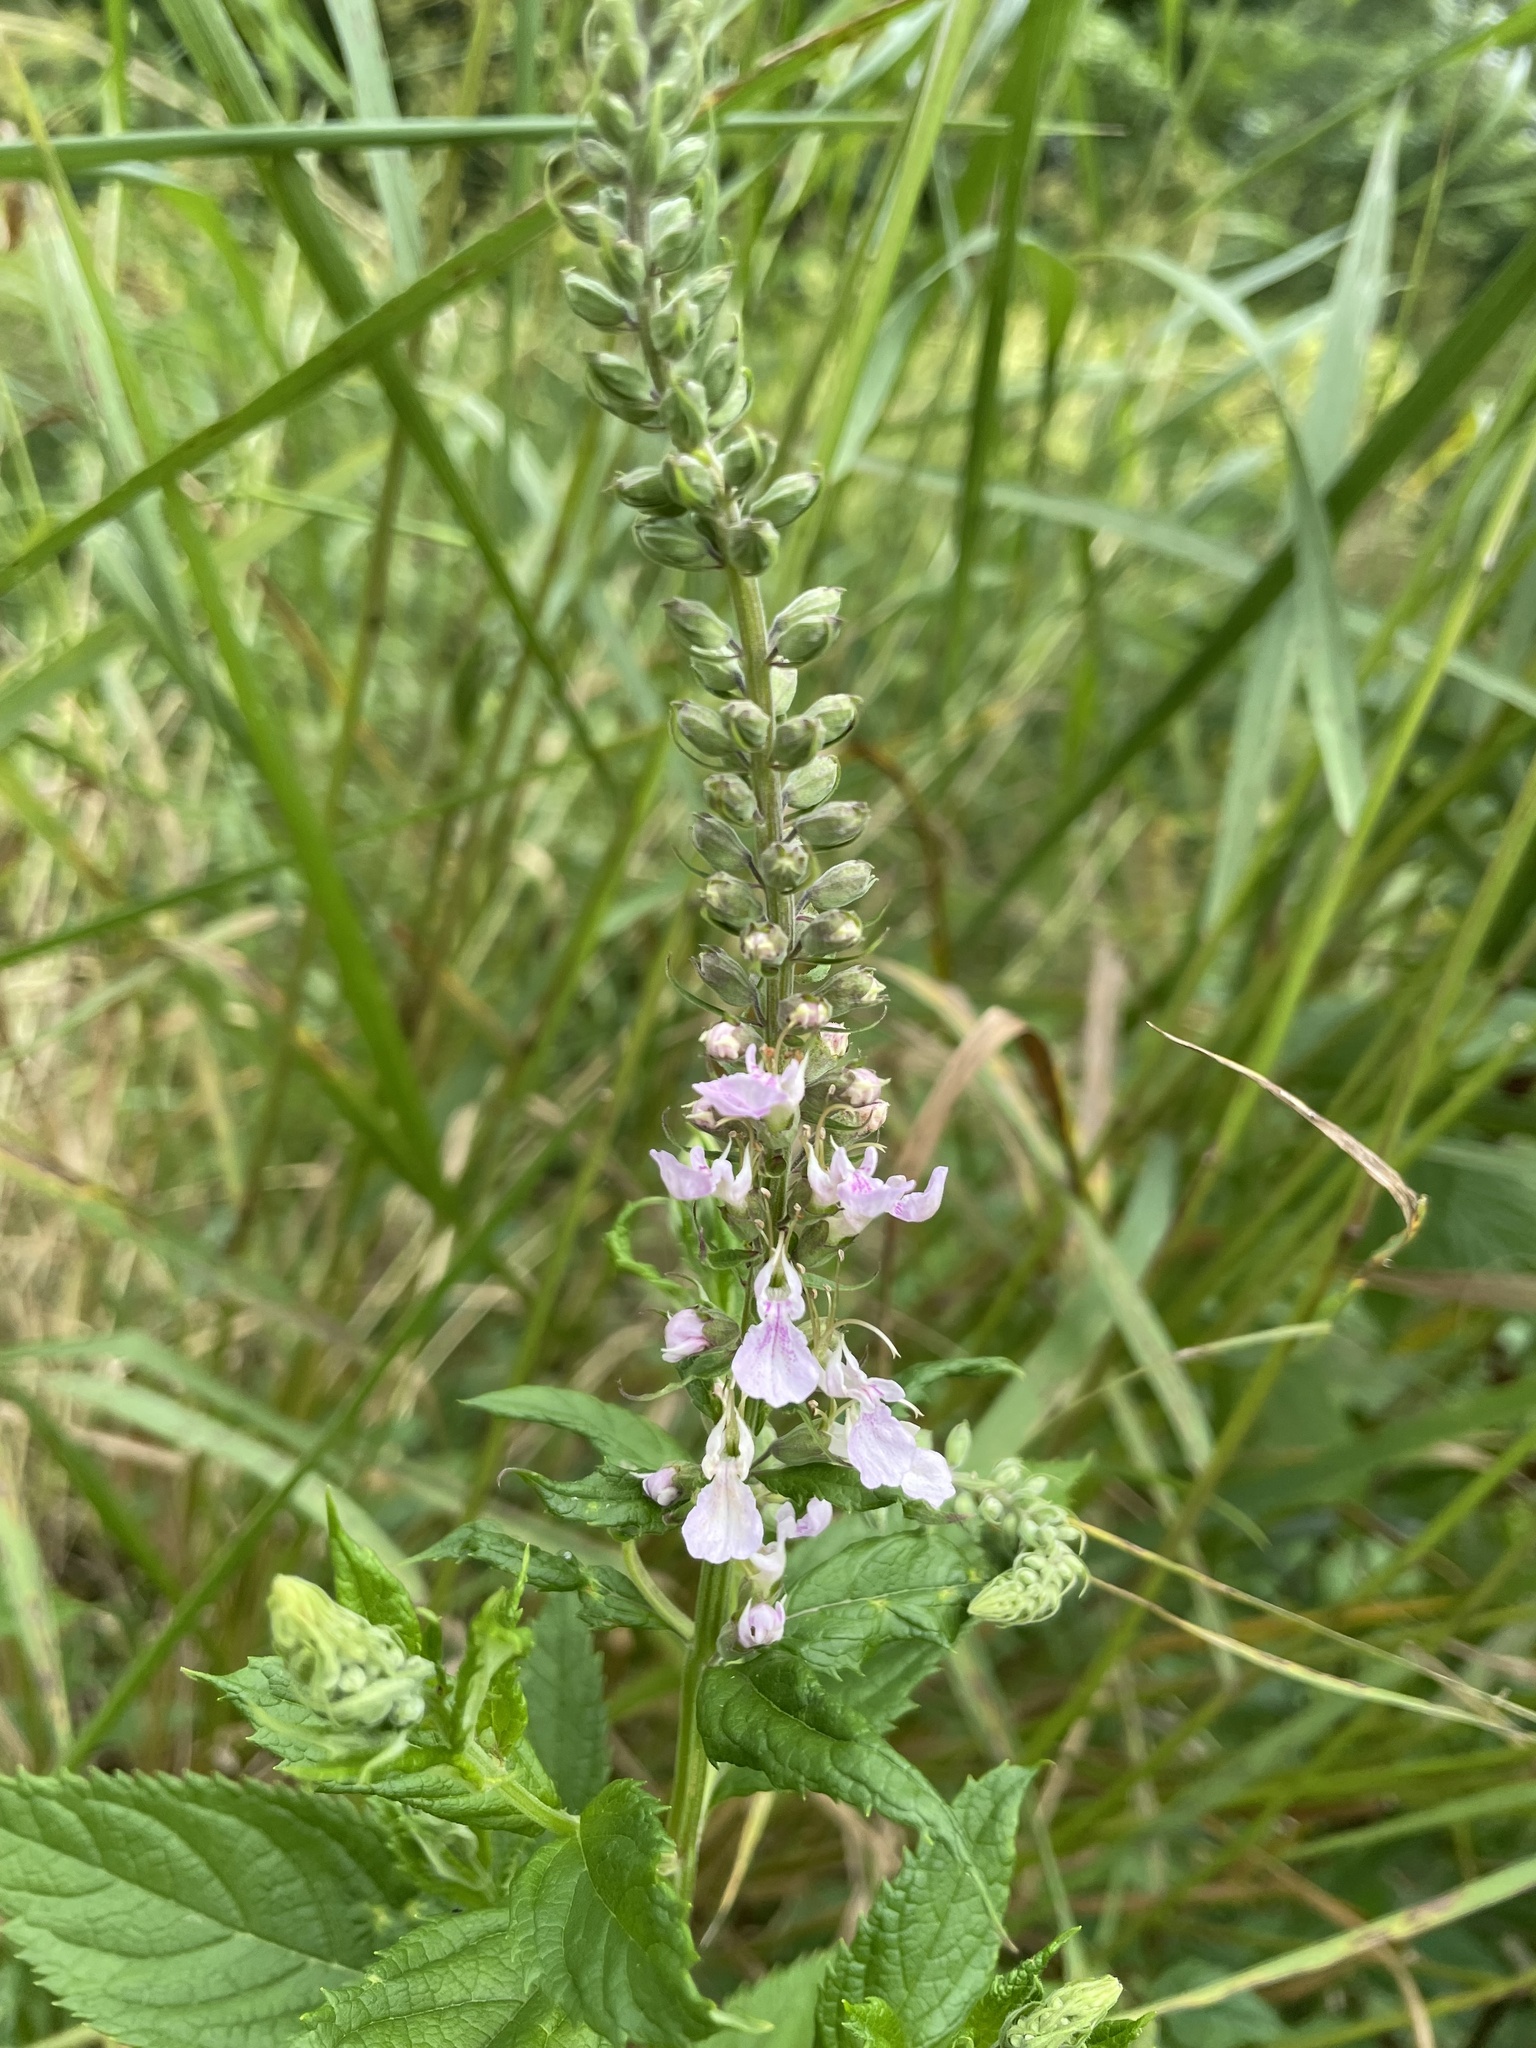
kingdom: Plantae
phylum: Tracheophyta
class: Magnoliopsida
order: Lamiales
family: Lamiaceae
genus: Teucrium
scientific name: Teucrium canadense
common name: American germander
